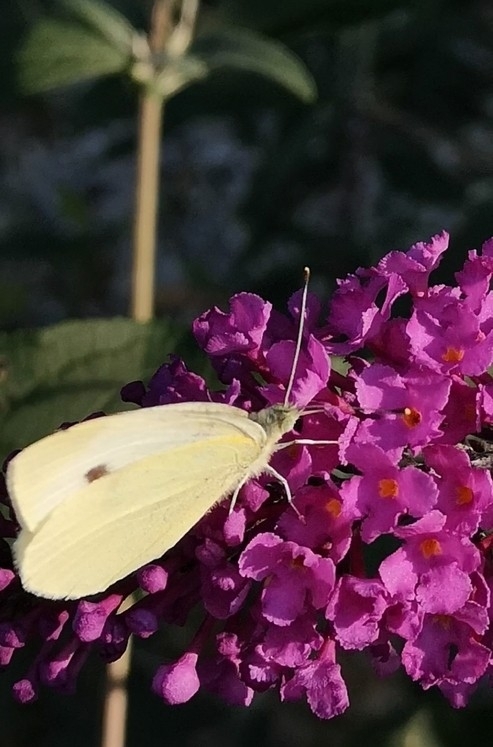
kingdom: Animalia
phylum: Arthropoda
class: Insecta
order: Lepidoptera
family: Pieridae
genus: Pieris
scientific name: Pieris rapae
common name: Small white
